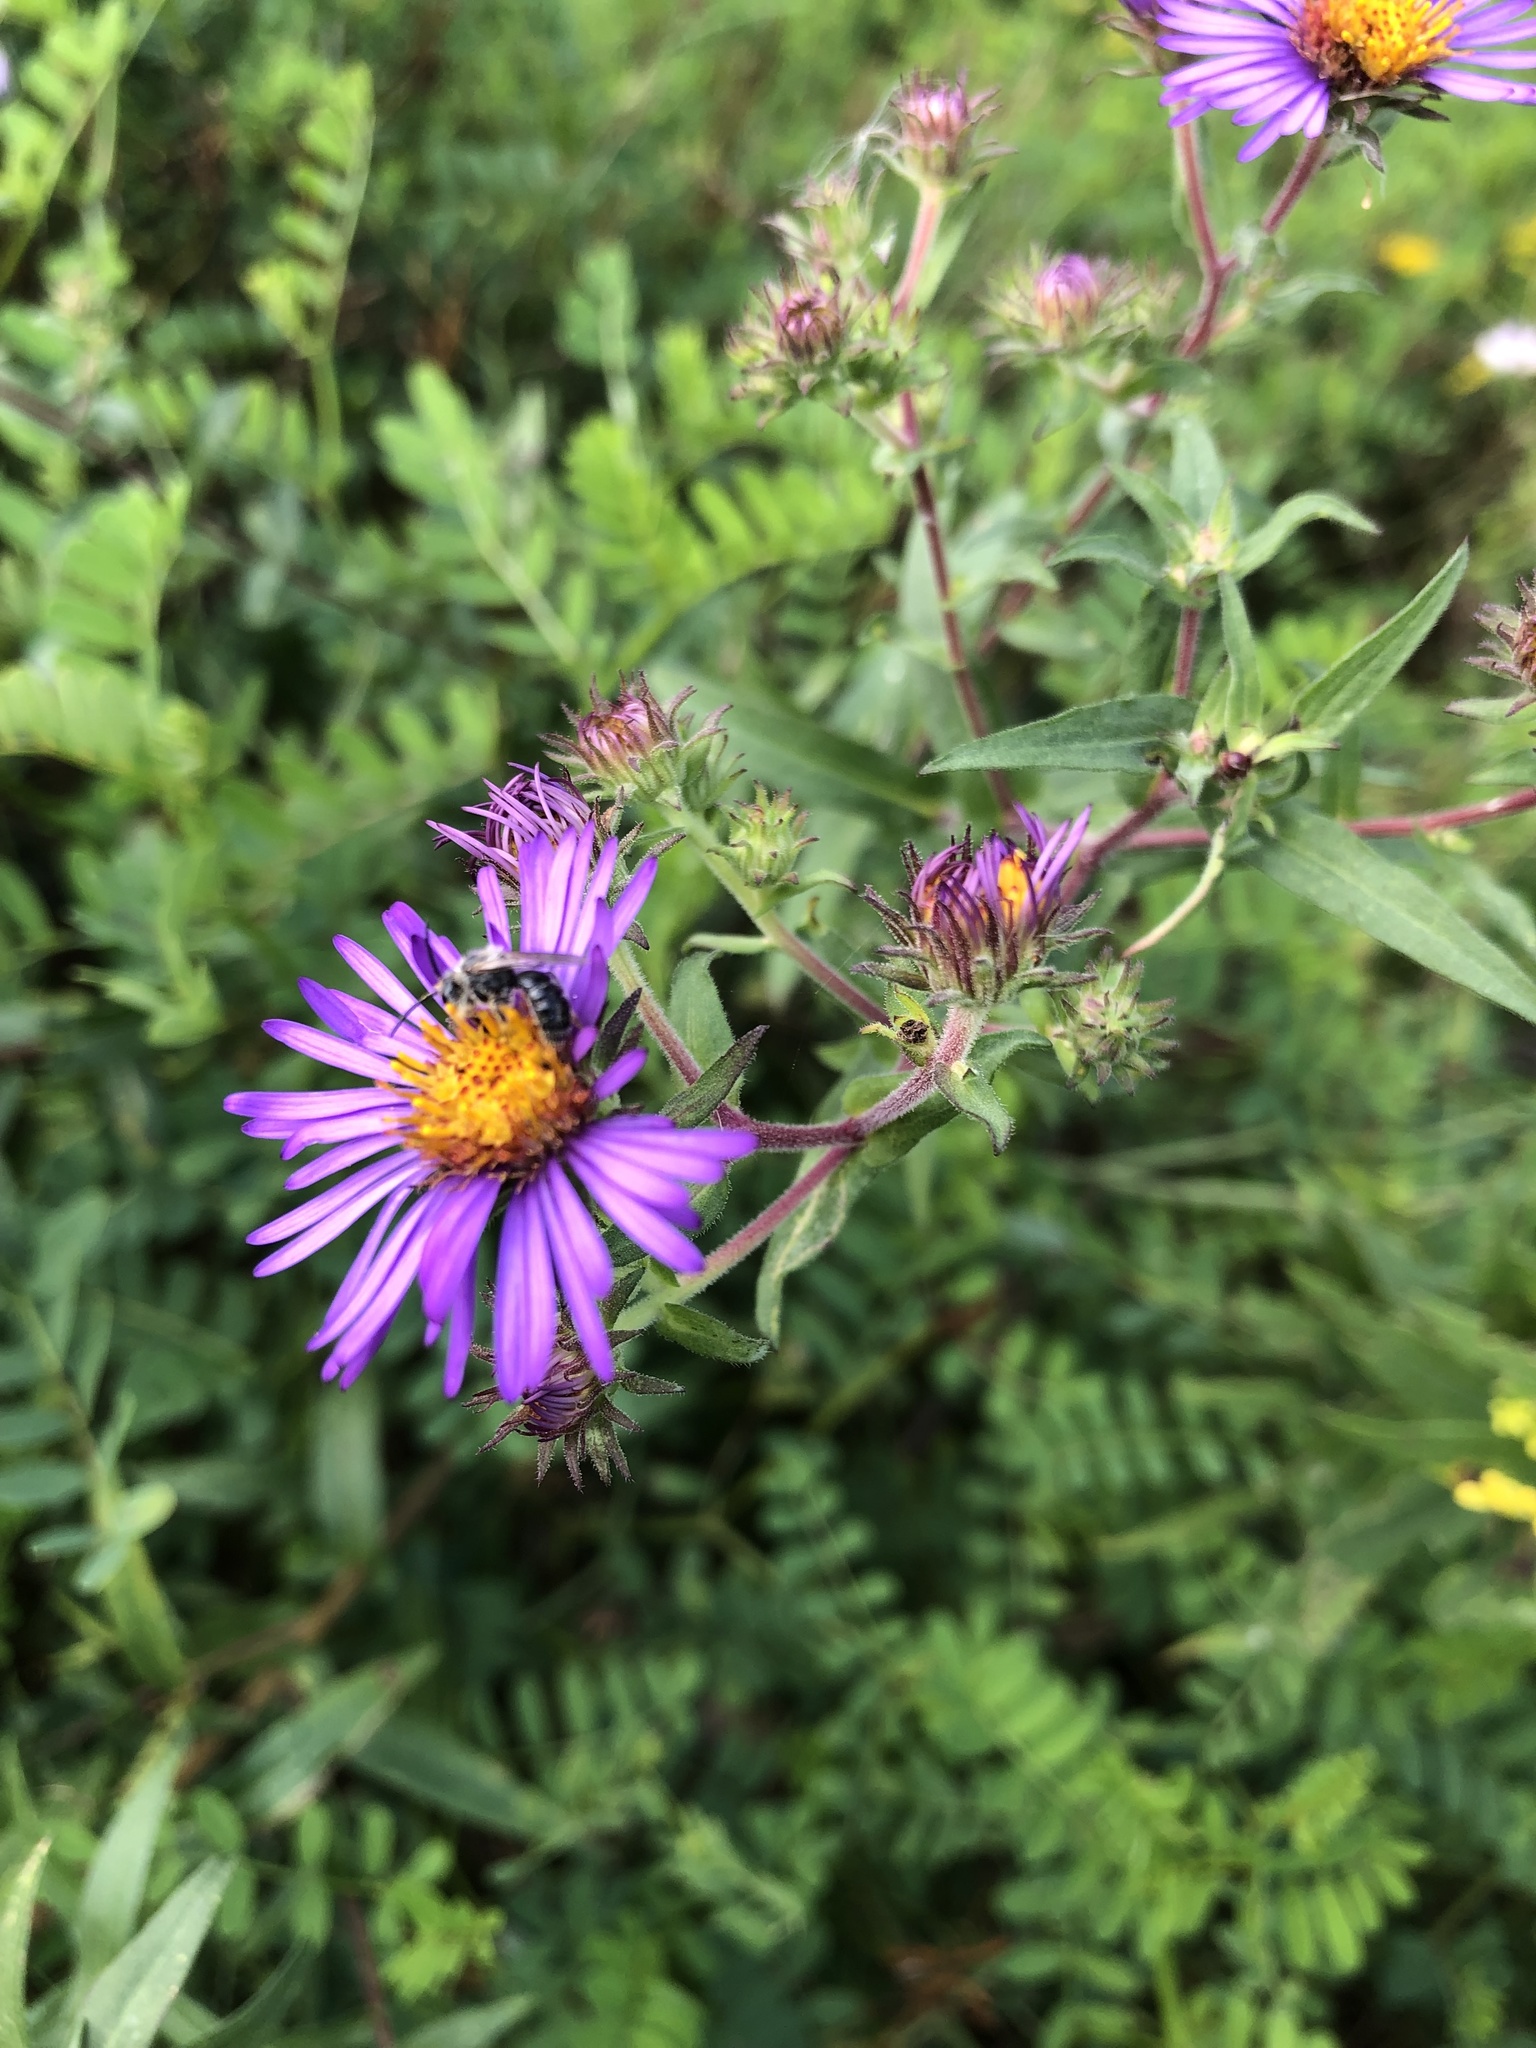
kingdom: Plantae
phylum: Tracheophyta
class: Magnoliopsida
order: Asterales
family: Asteraceae
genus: Symphyotrichum
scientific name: Symphyotrichum novae-angliae
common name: Michaelmas daisy
